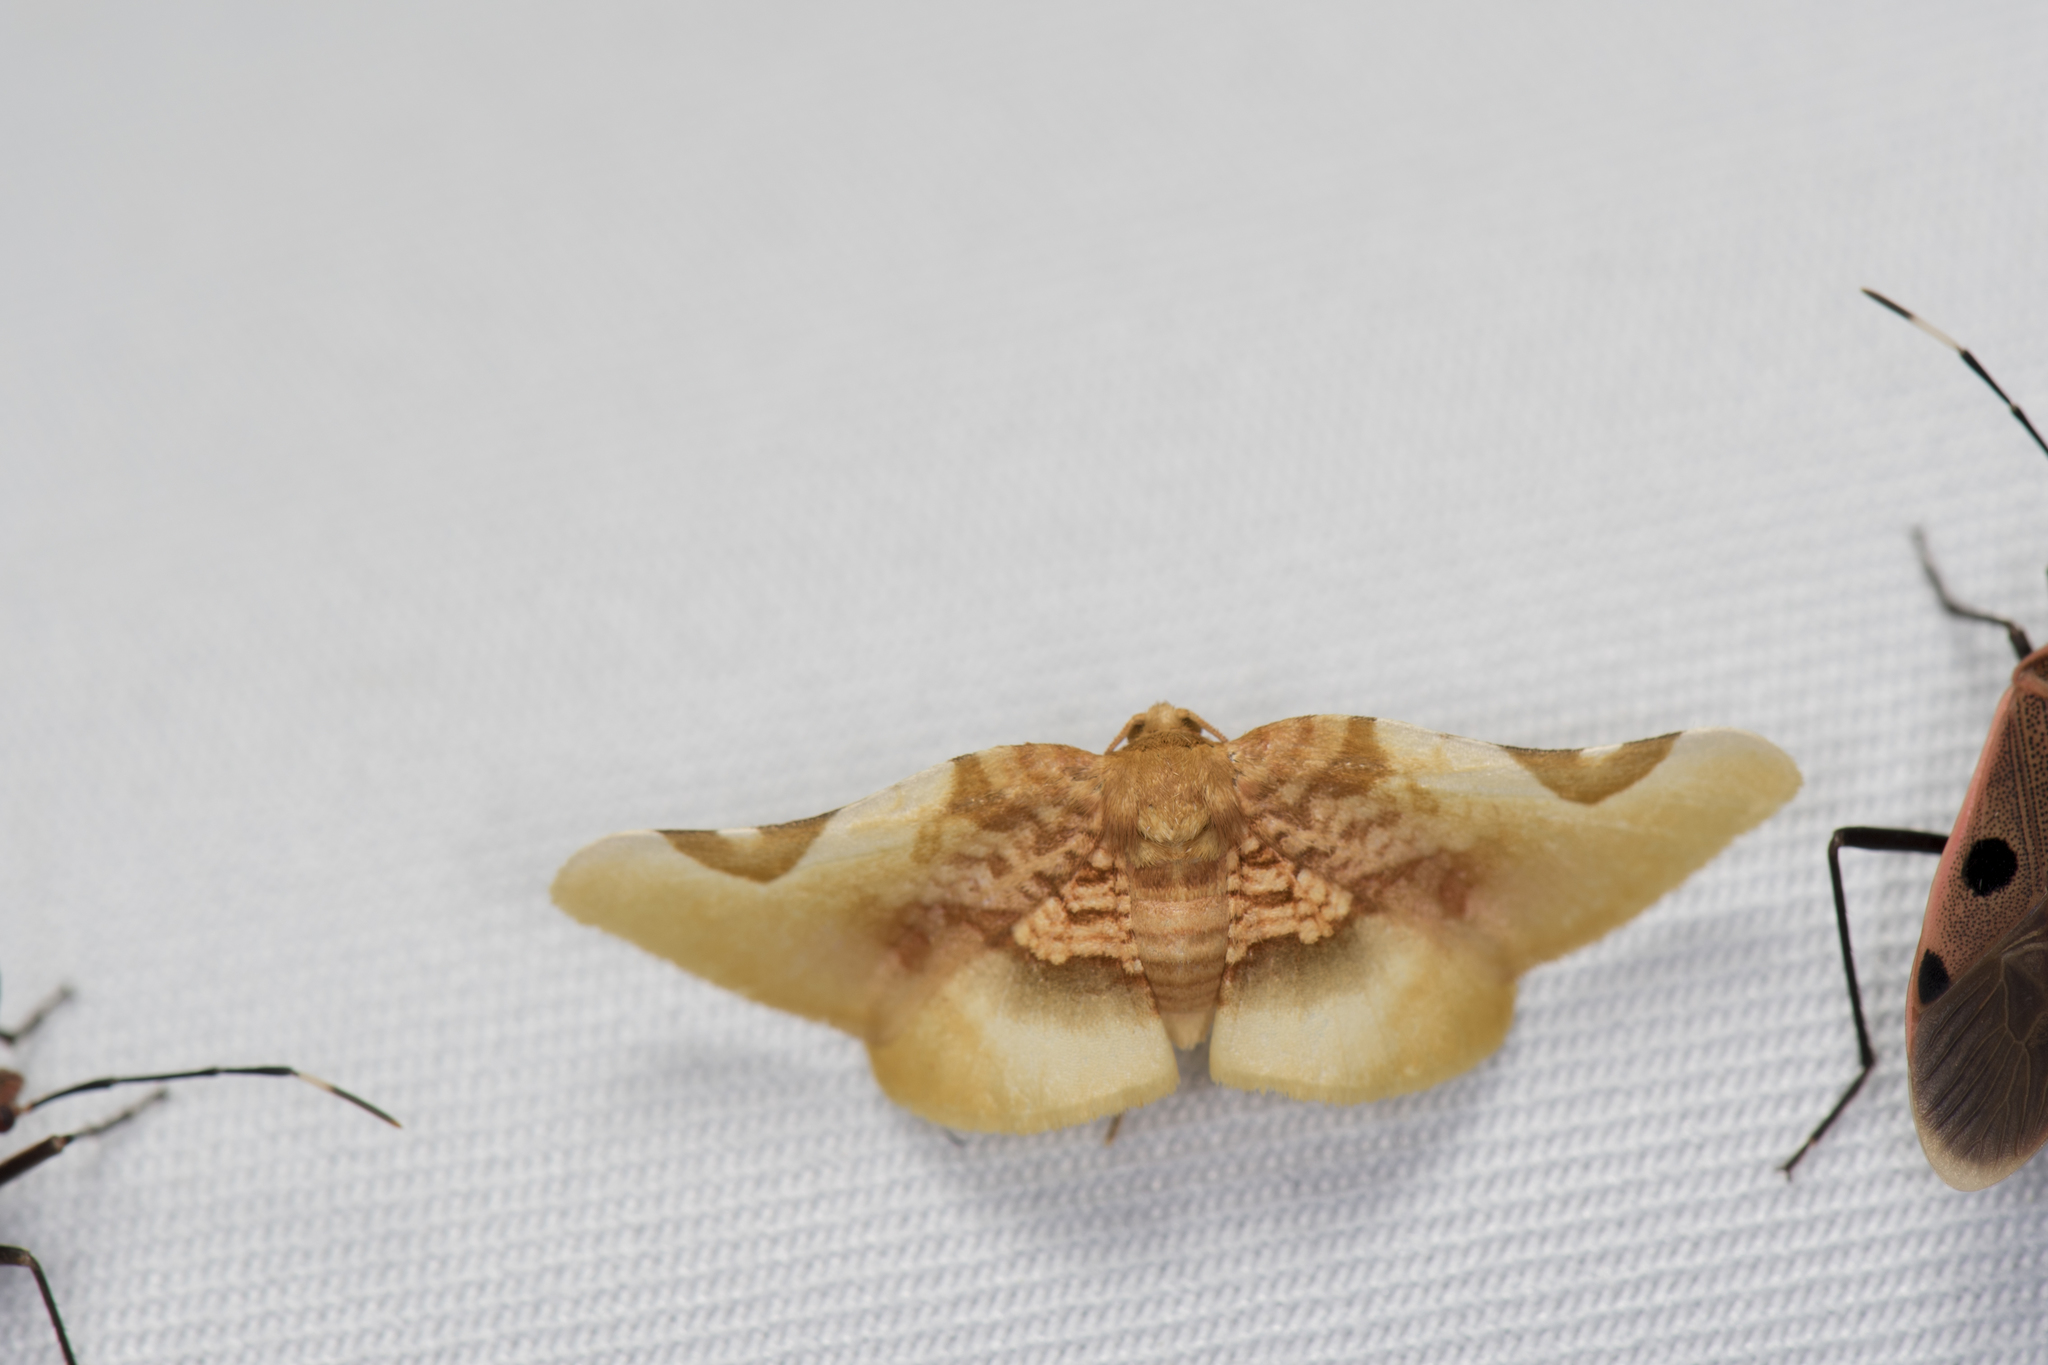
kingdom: Animalia
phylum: Arthropoda
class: Insecta
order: Lepidoptera
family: Thyrididae
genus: Pyrinioides
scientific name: Pyrinioides sinuosa
